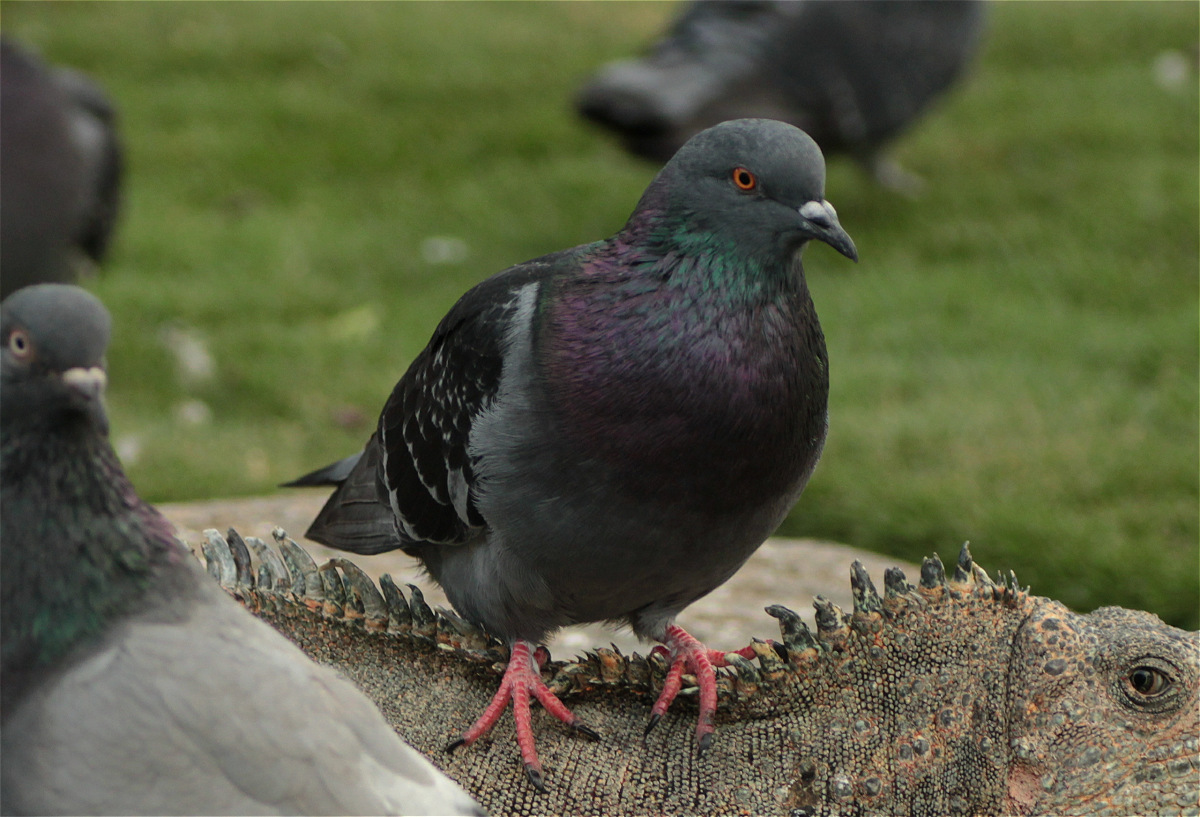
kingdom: Animalia
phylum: Chordata
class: Aves
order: Columbiformes
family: Columbidae
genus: Columba
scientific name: Columba livia
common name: Rock pigeon
